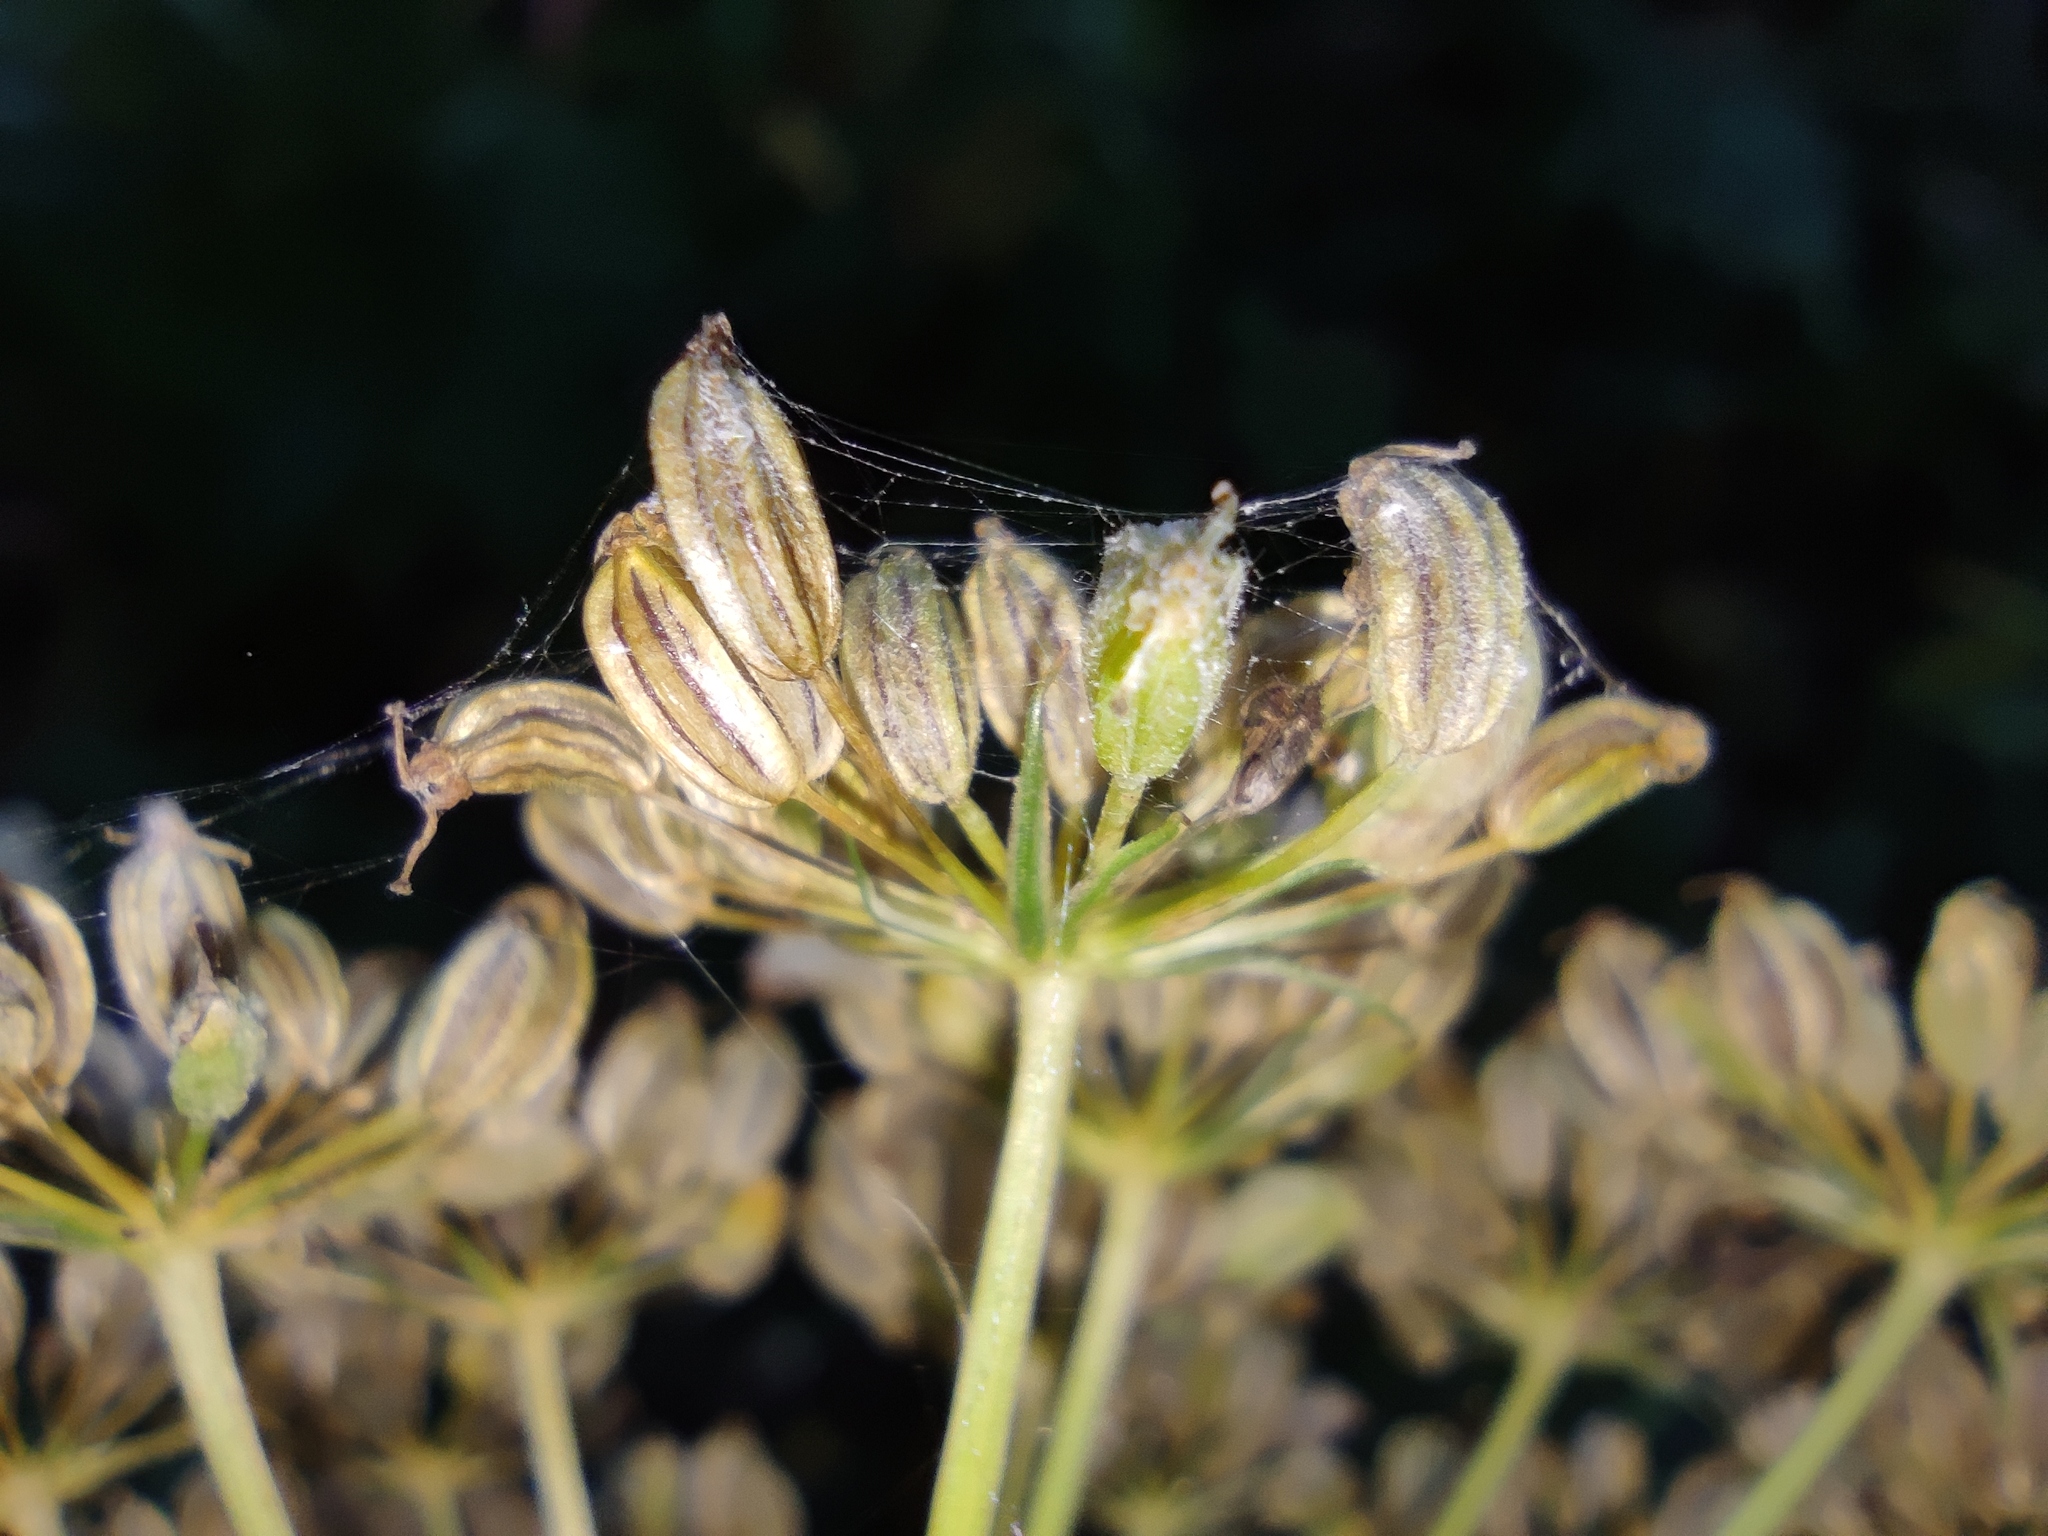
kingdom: Plantae
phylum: Tracheophyta
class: Magnoliopsida
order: Apiales
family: Apiaceae
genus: Cenolophium
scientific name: Cenolophium fischeri
